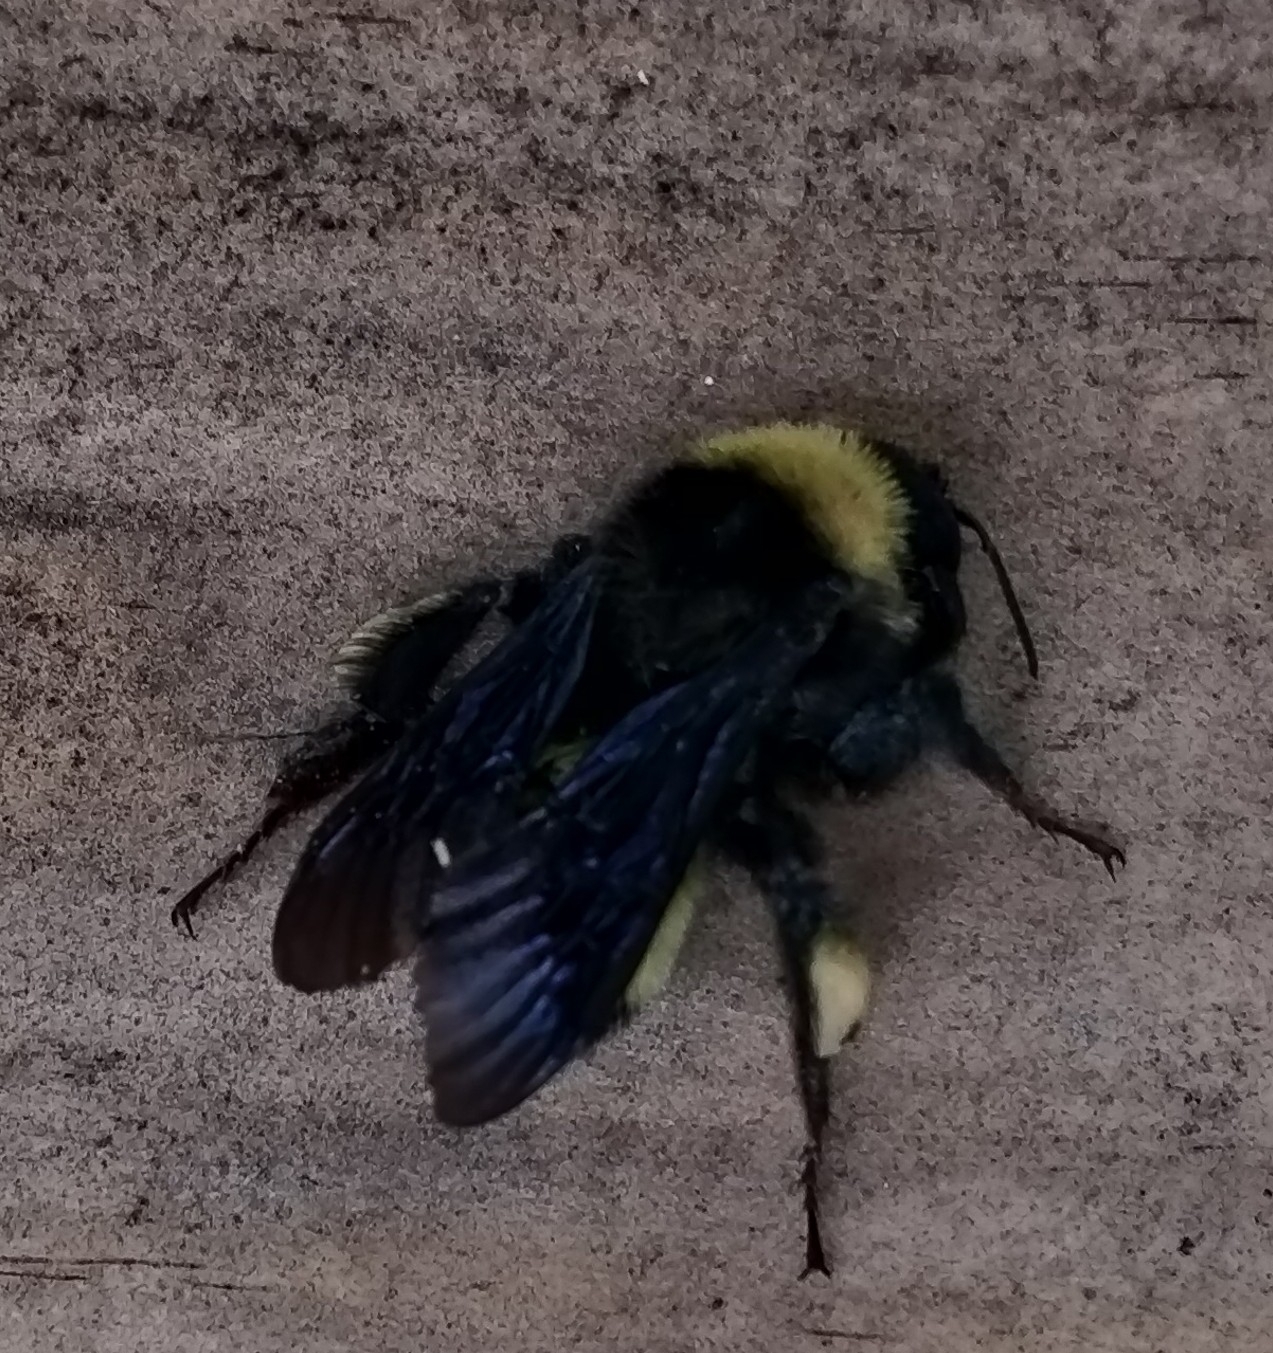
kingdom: Animalia
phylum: Arthropoda
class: Insecta
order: Hymenoptera
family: Apidae
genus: Bombus
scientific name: Bombus pensylvanicus
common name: Bumble bee
